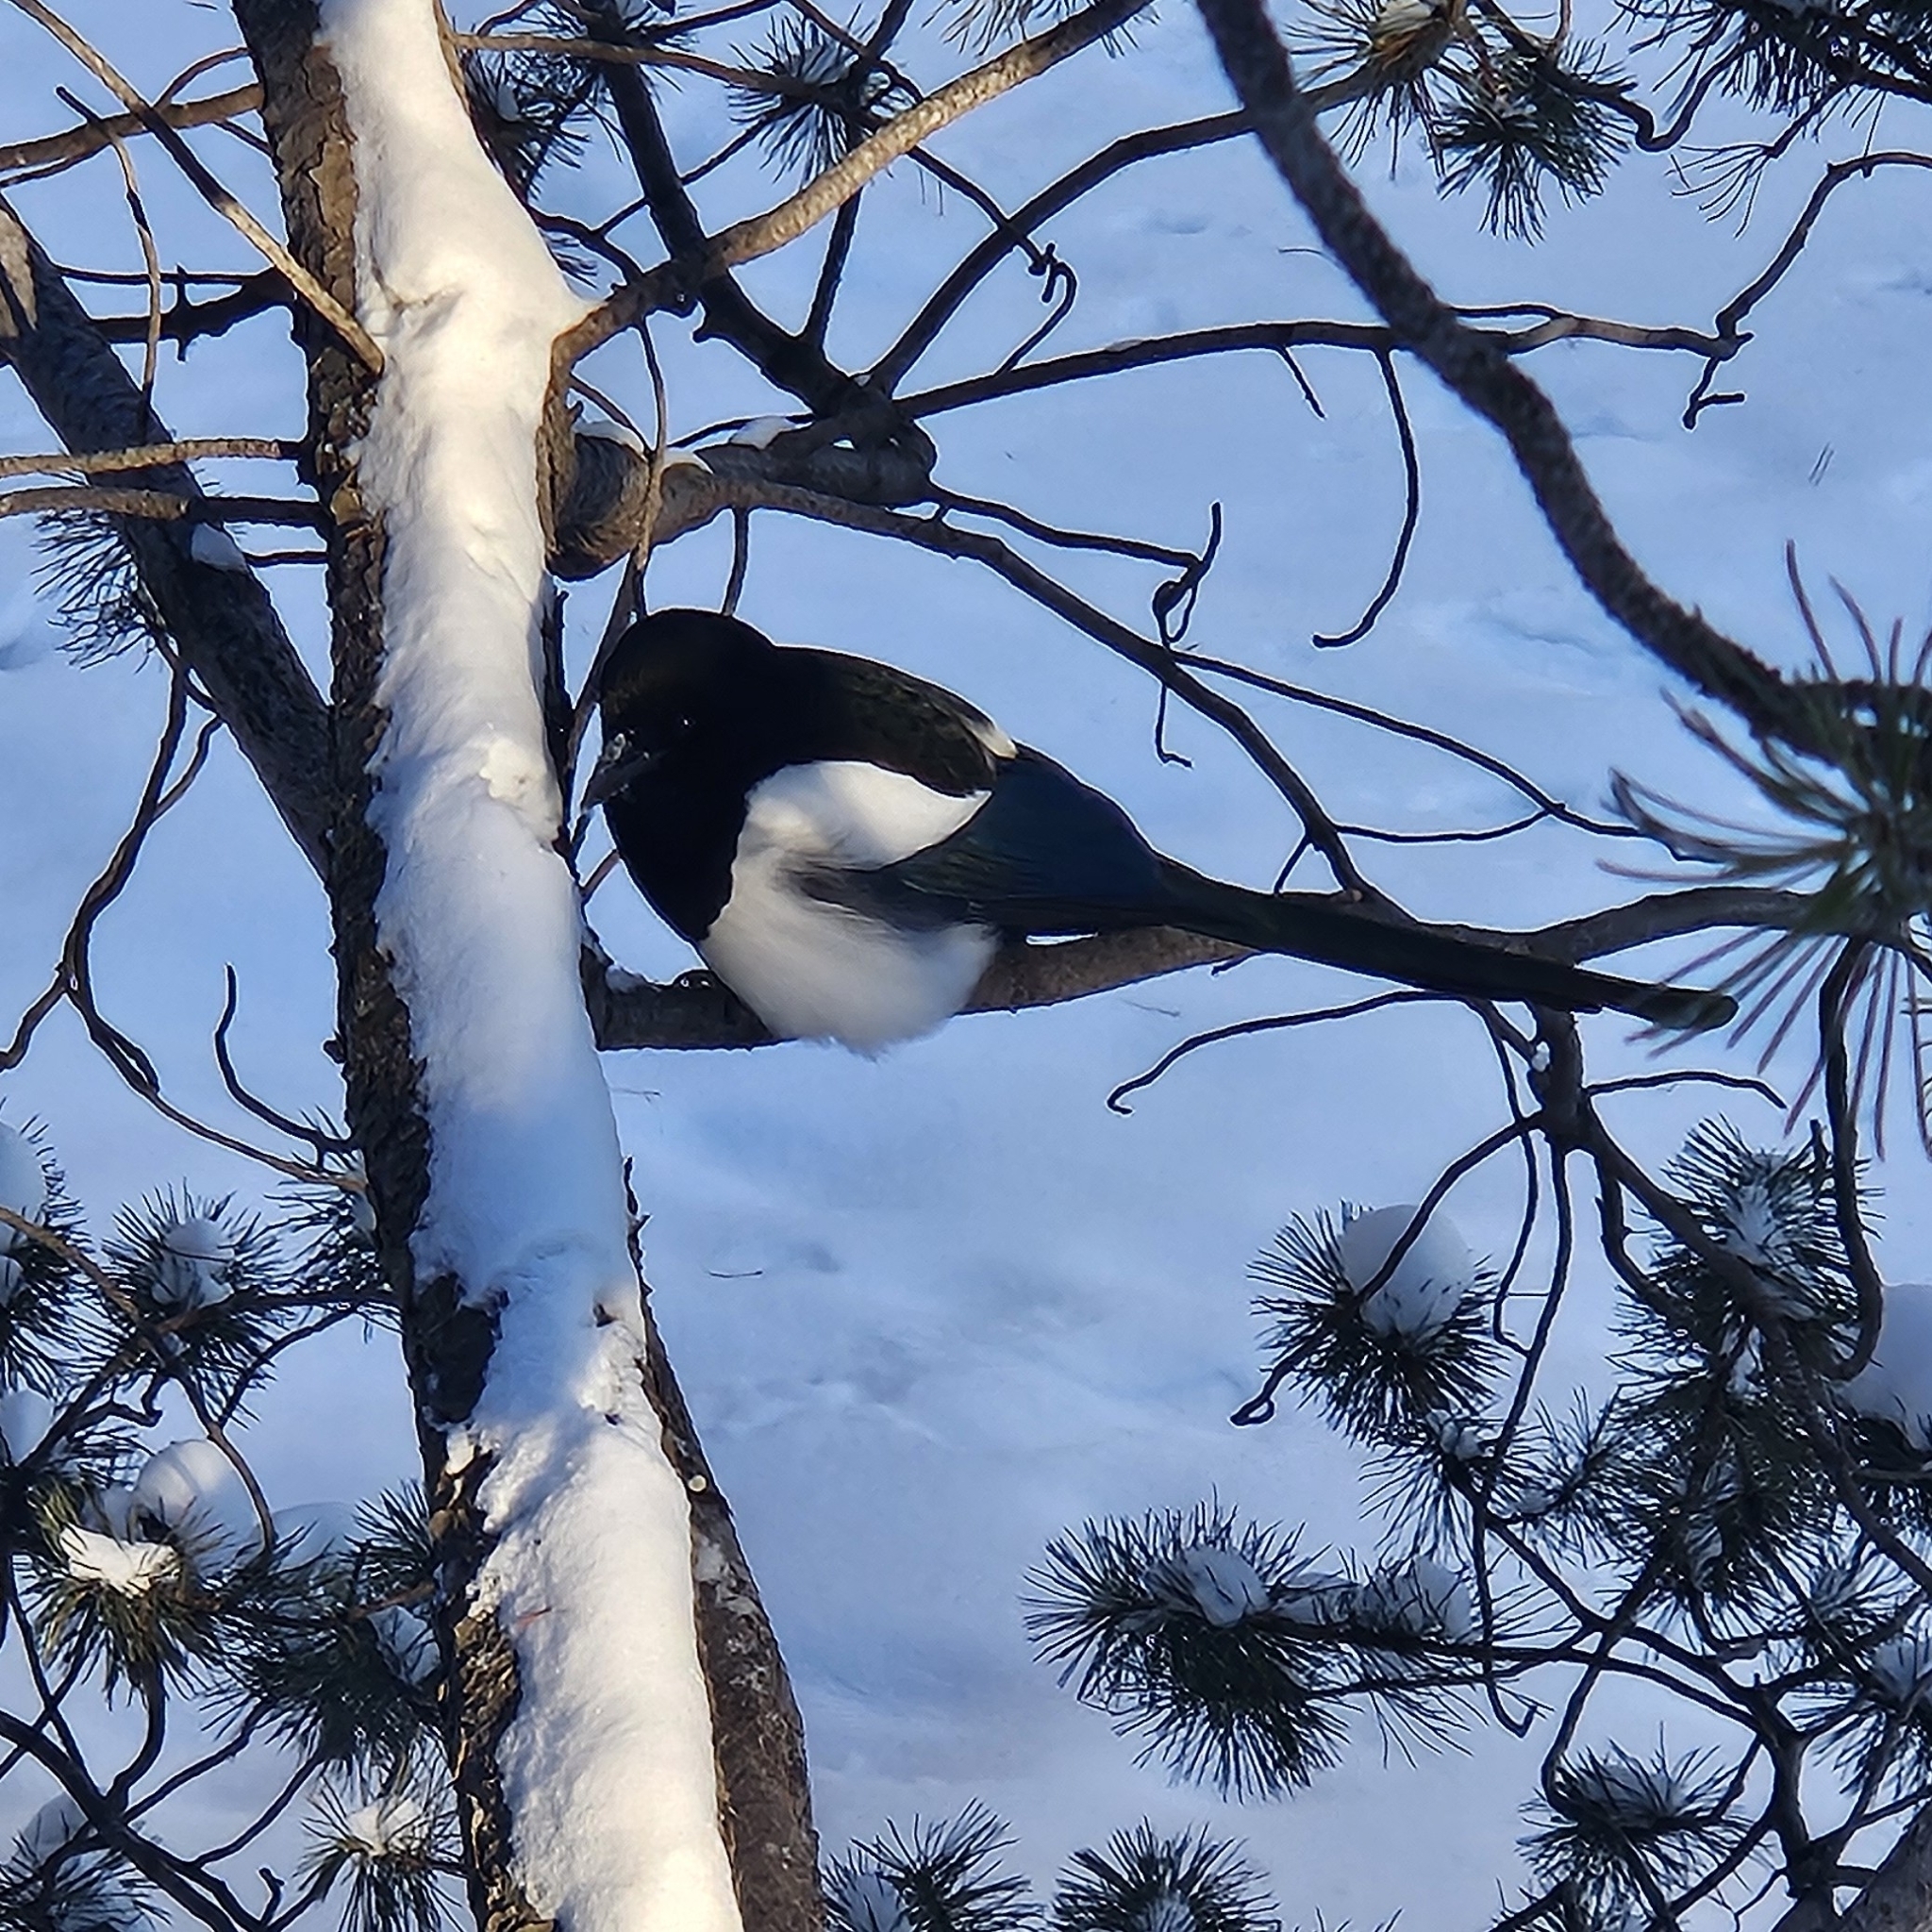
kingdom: Animalia
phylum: Chordata
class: Aves
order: Passeriformes
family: Corvidae
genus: Pica
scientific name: Pica hudsonia
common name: Black-billed magpie
